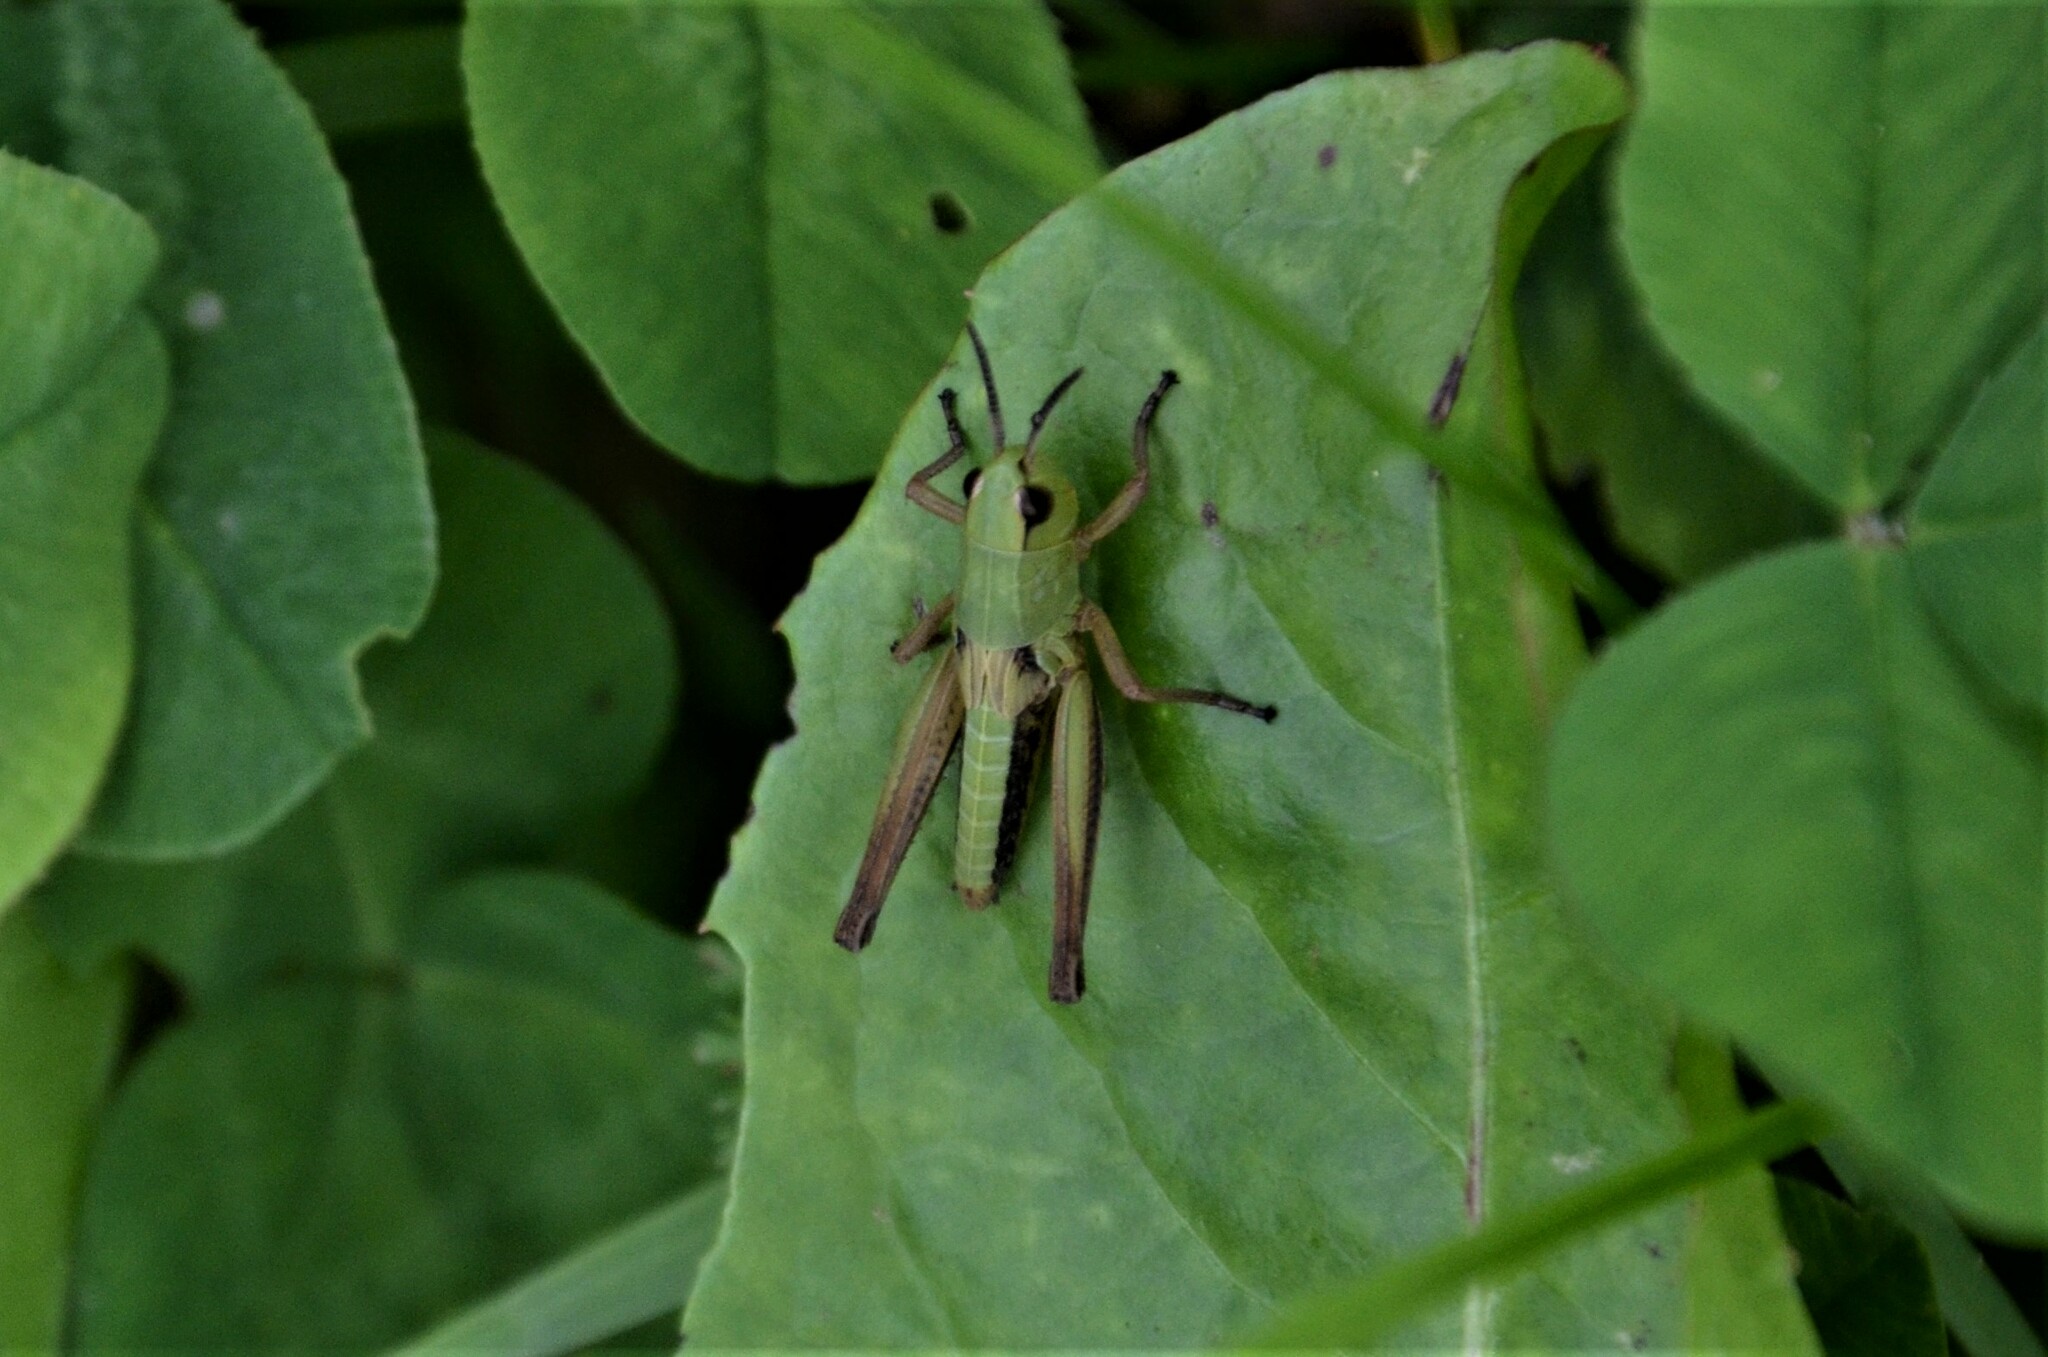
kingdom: Animalia
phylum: Arthropoda
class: Insecta
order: Orthoptera
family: Acrididae
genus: Pseudochorthippus
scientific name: Pseudochorthippus parallelus
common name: Meadow grasshopper
